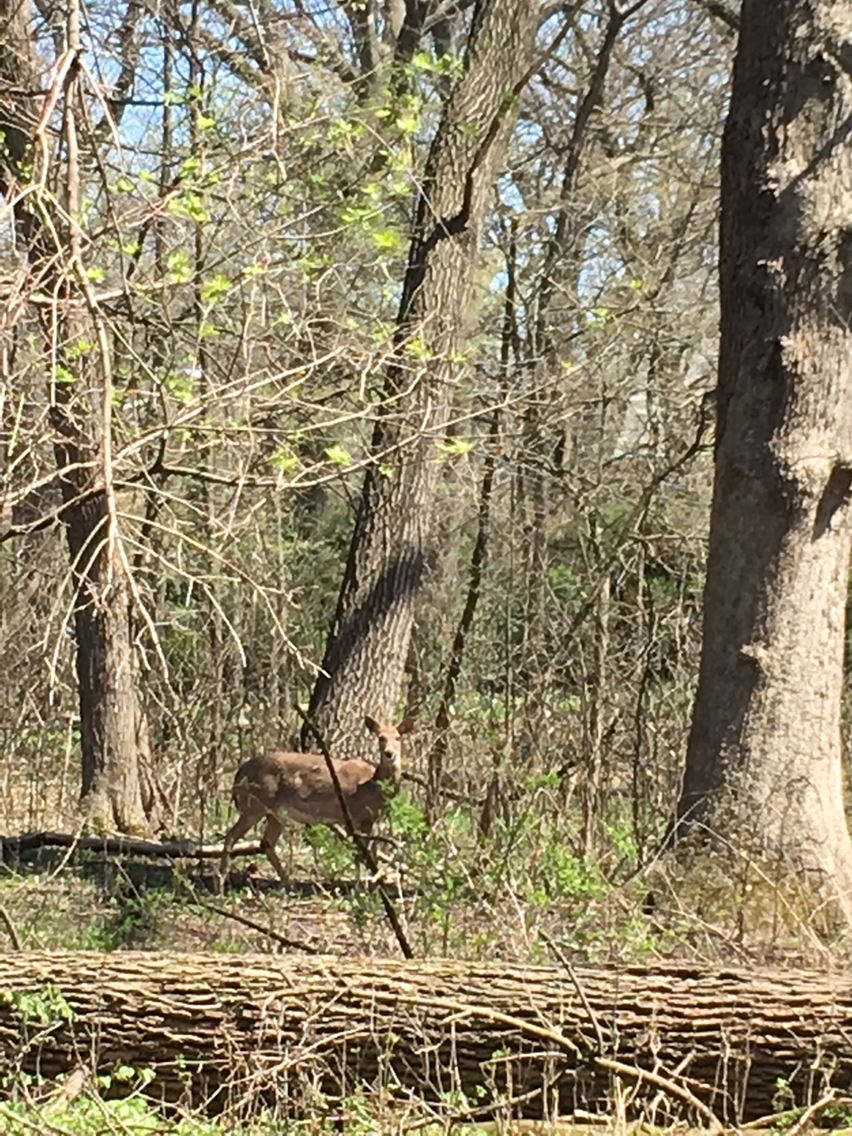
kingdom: Animalia
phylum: Chordata
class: Mammalia
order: Artiodactyla
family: Cervidae
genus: Odocoileus
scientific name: Odocoileus virginianus
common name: White-tailed deer
